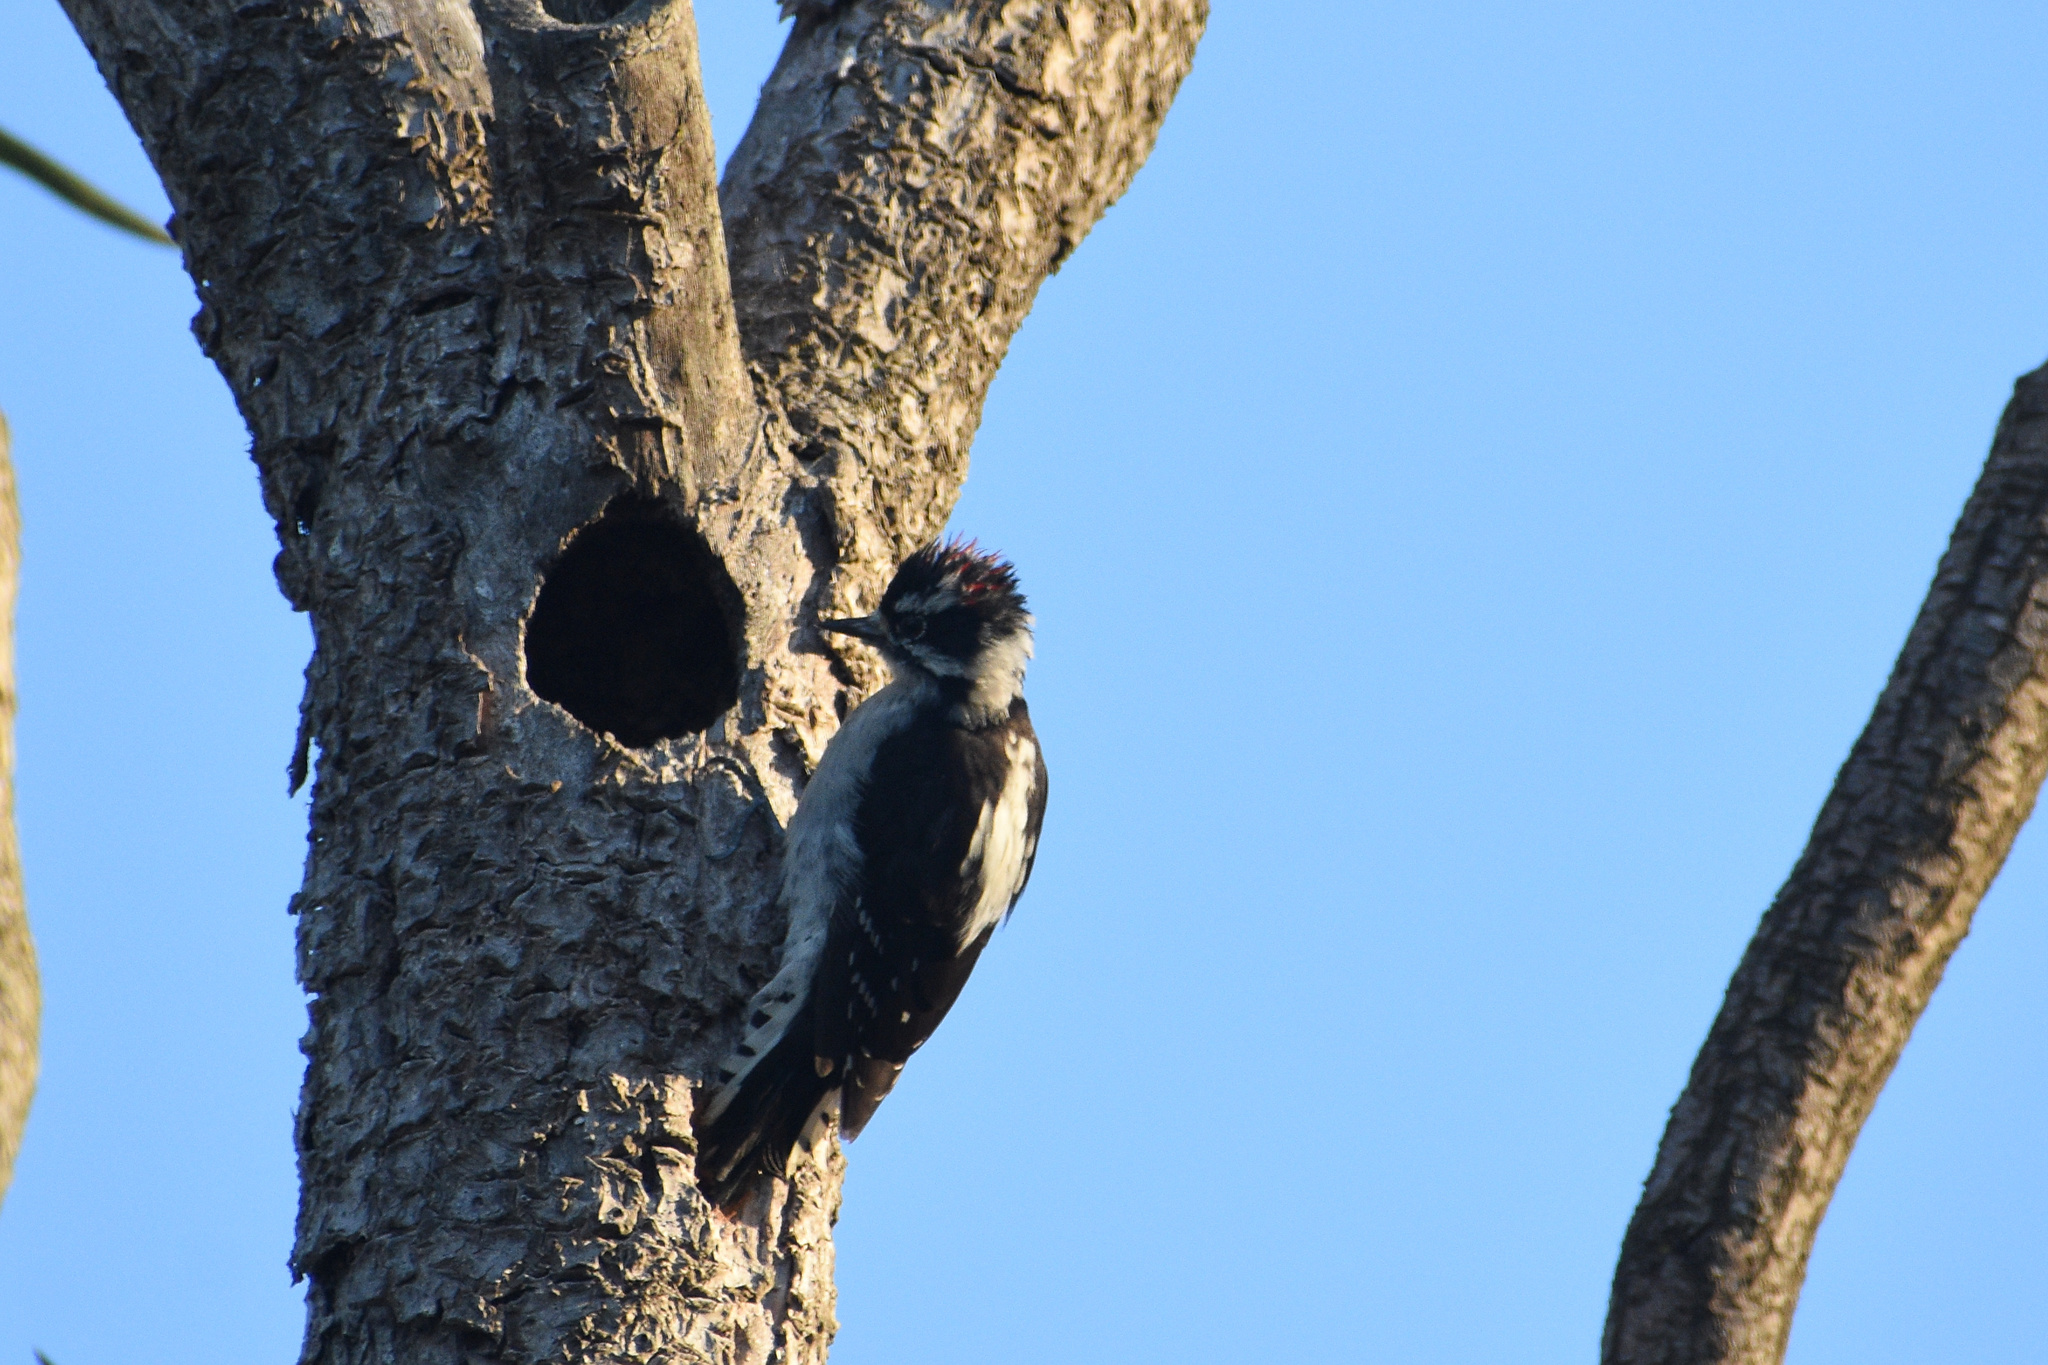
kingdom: Animalia
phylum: Chordata
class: Aves
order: Piciformes
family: Picidae
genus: Dryobates
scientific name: Dryobates pubescens
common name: Downy woodpecker
